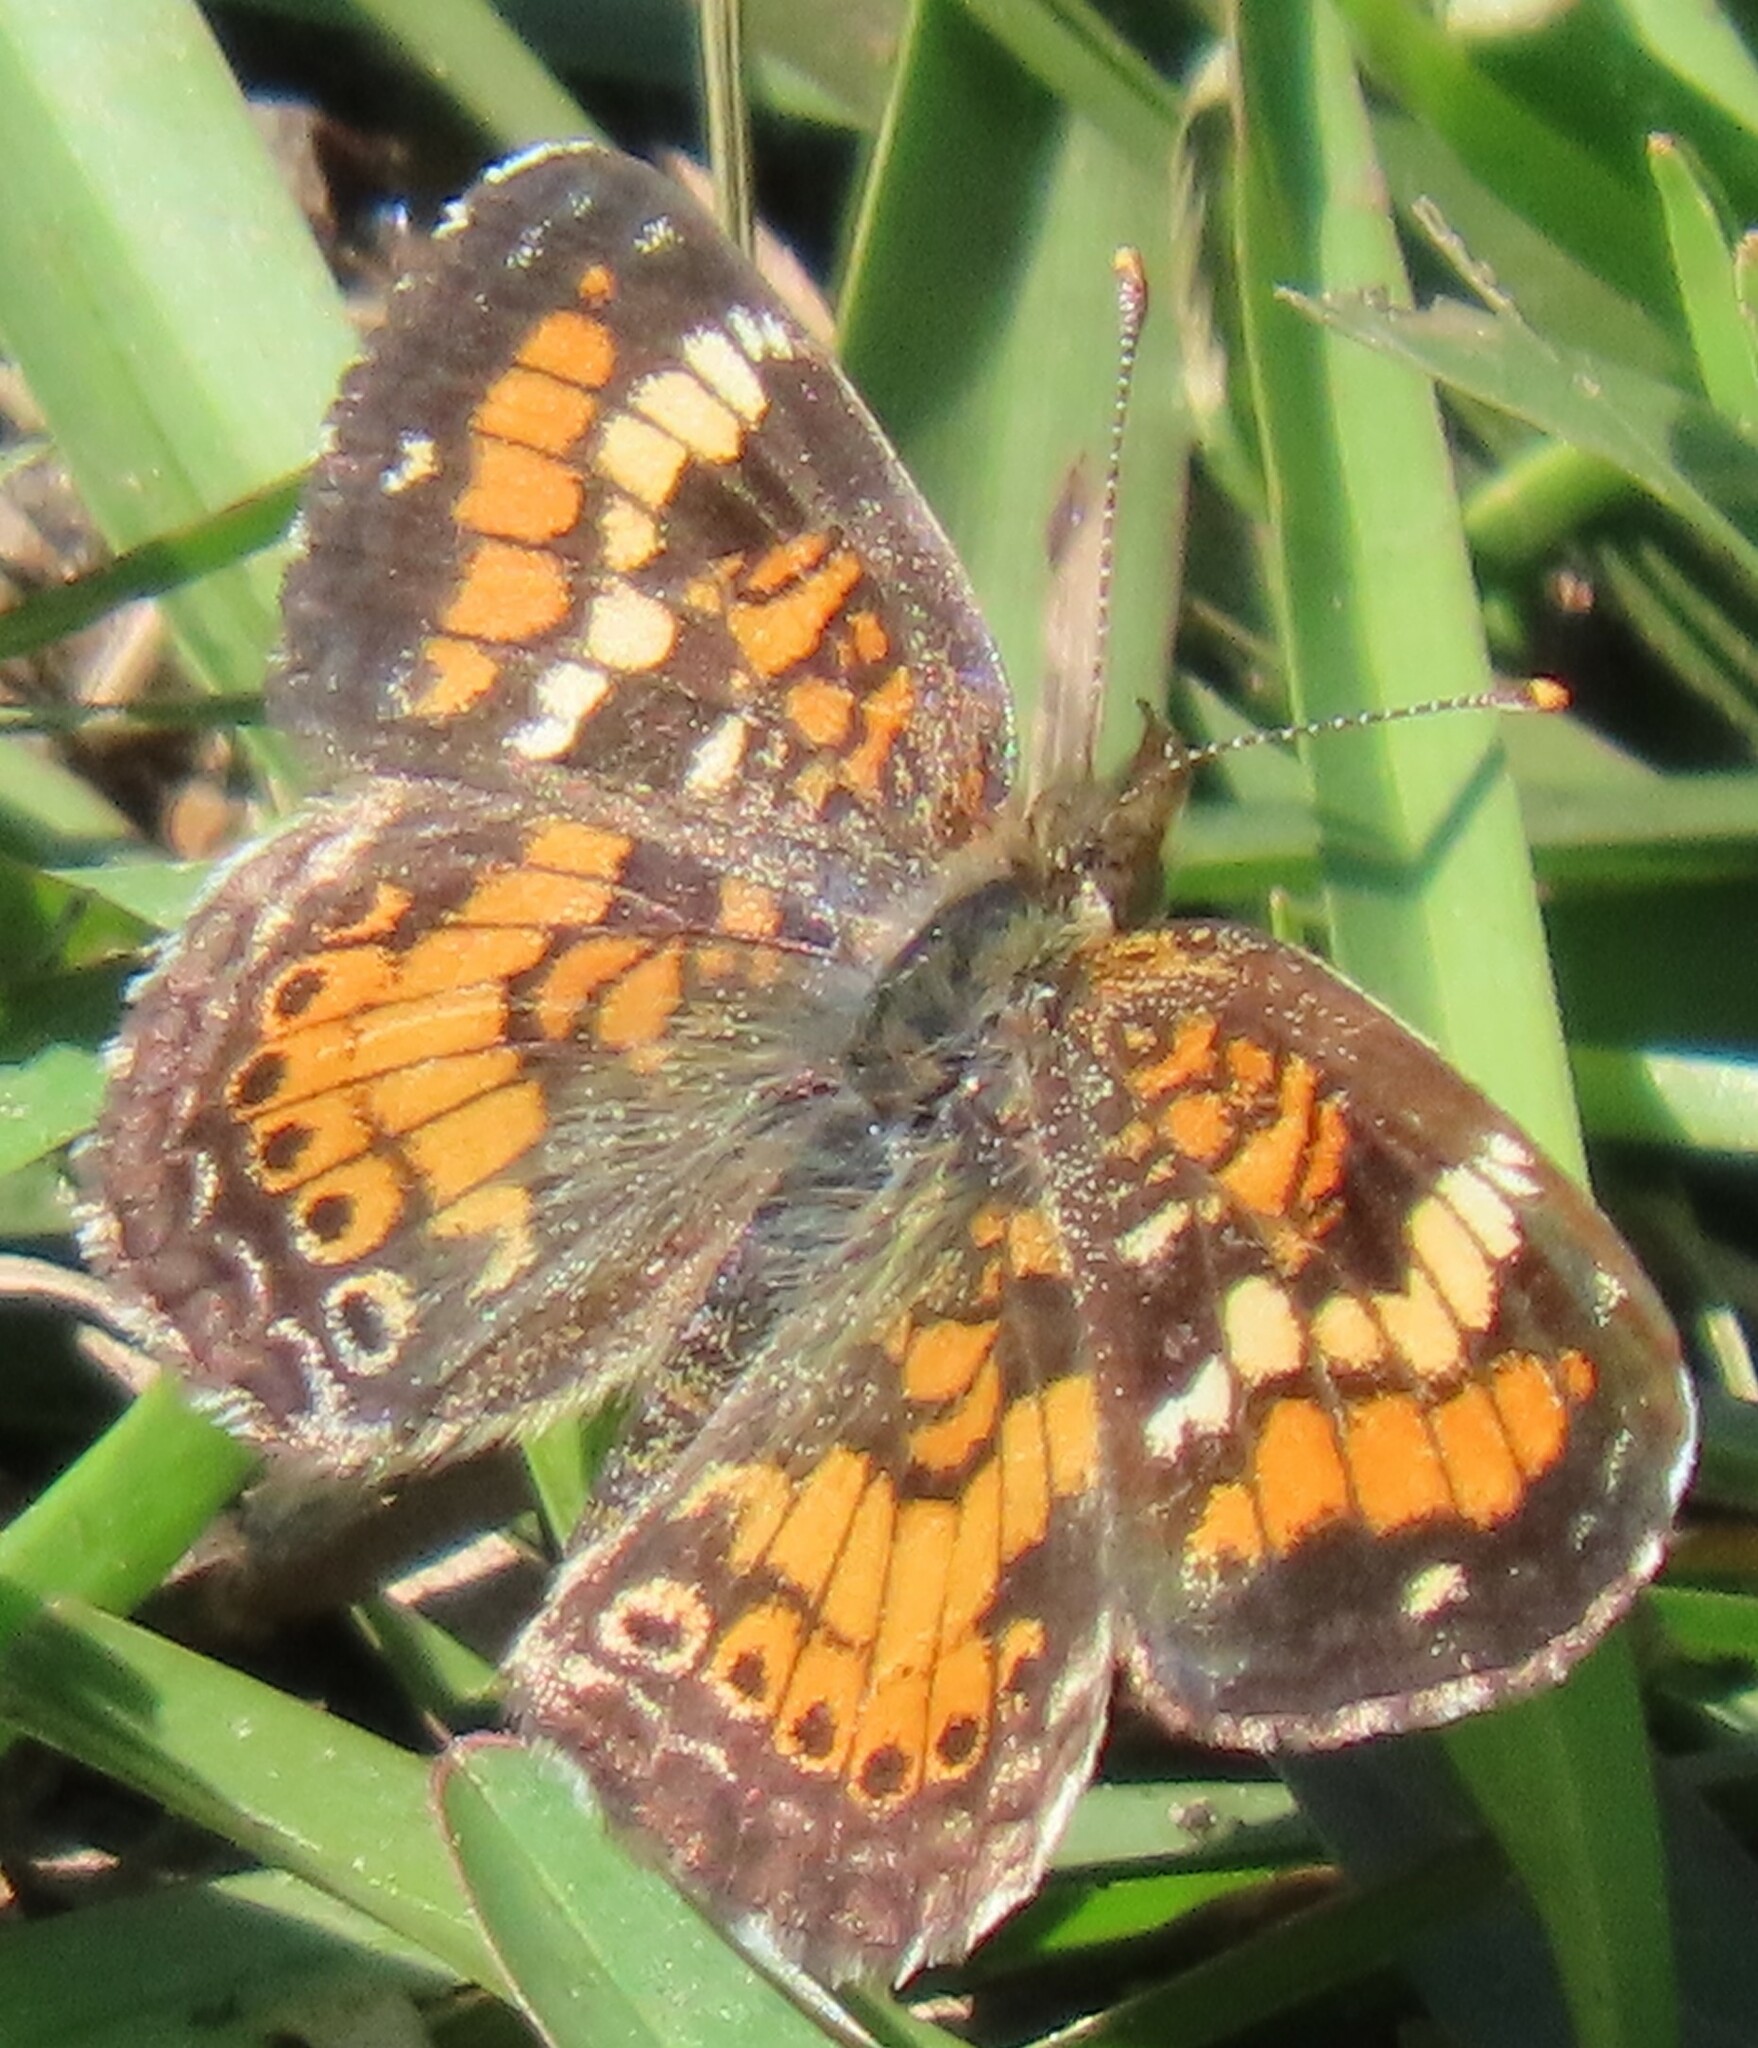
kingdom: Animalia
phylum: Arthropoda
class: Insecta
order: Lepidoptera
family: Nymphalidae
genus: Phyciodes
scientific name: Phyciodes phaon
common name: Phaon crescent
